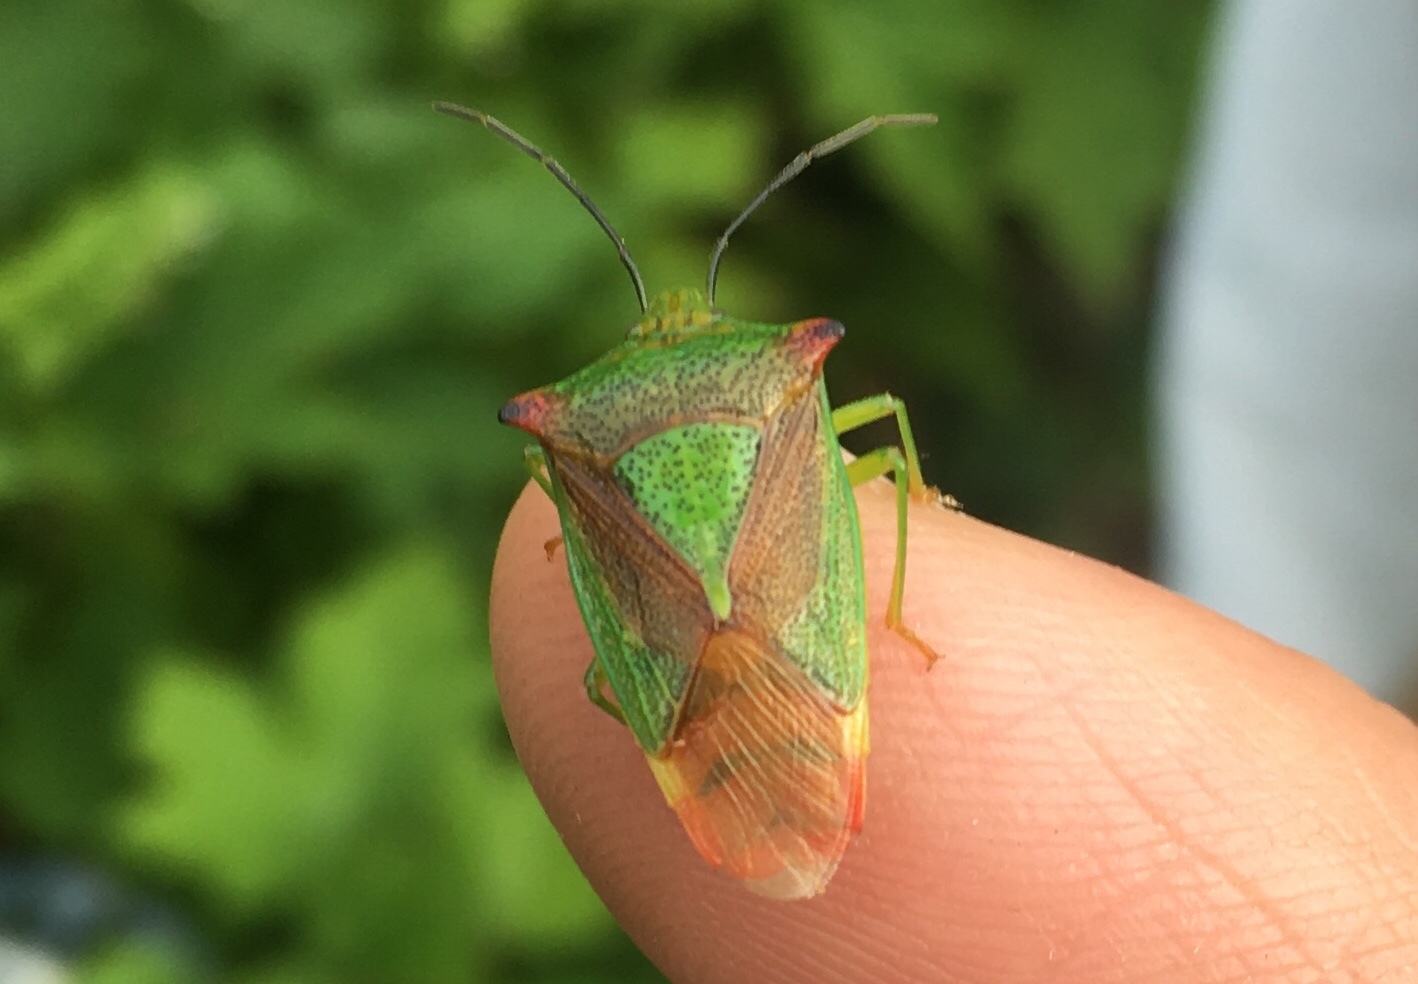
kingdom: Animalia
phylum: Arthropoda
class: Insecta
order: Hemiptera
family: Acanthosomatidae
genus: Acanthosoma
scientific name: Acanthosoma haemorrhoidale
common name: Hawthorn shieldbug
